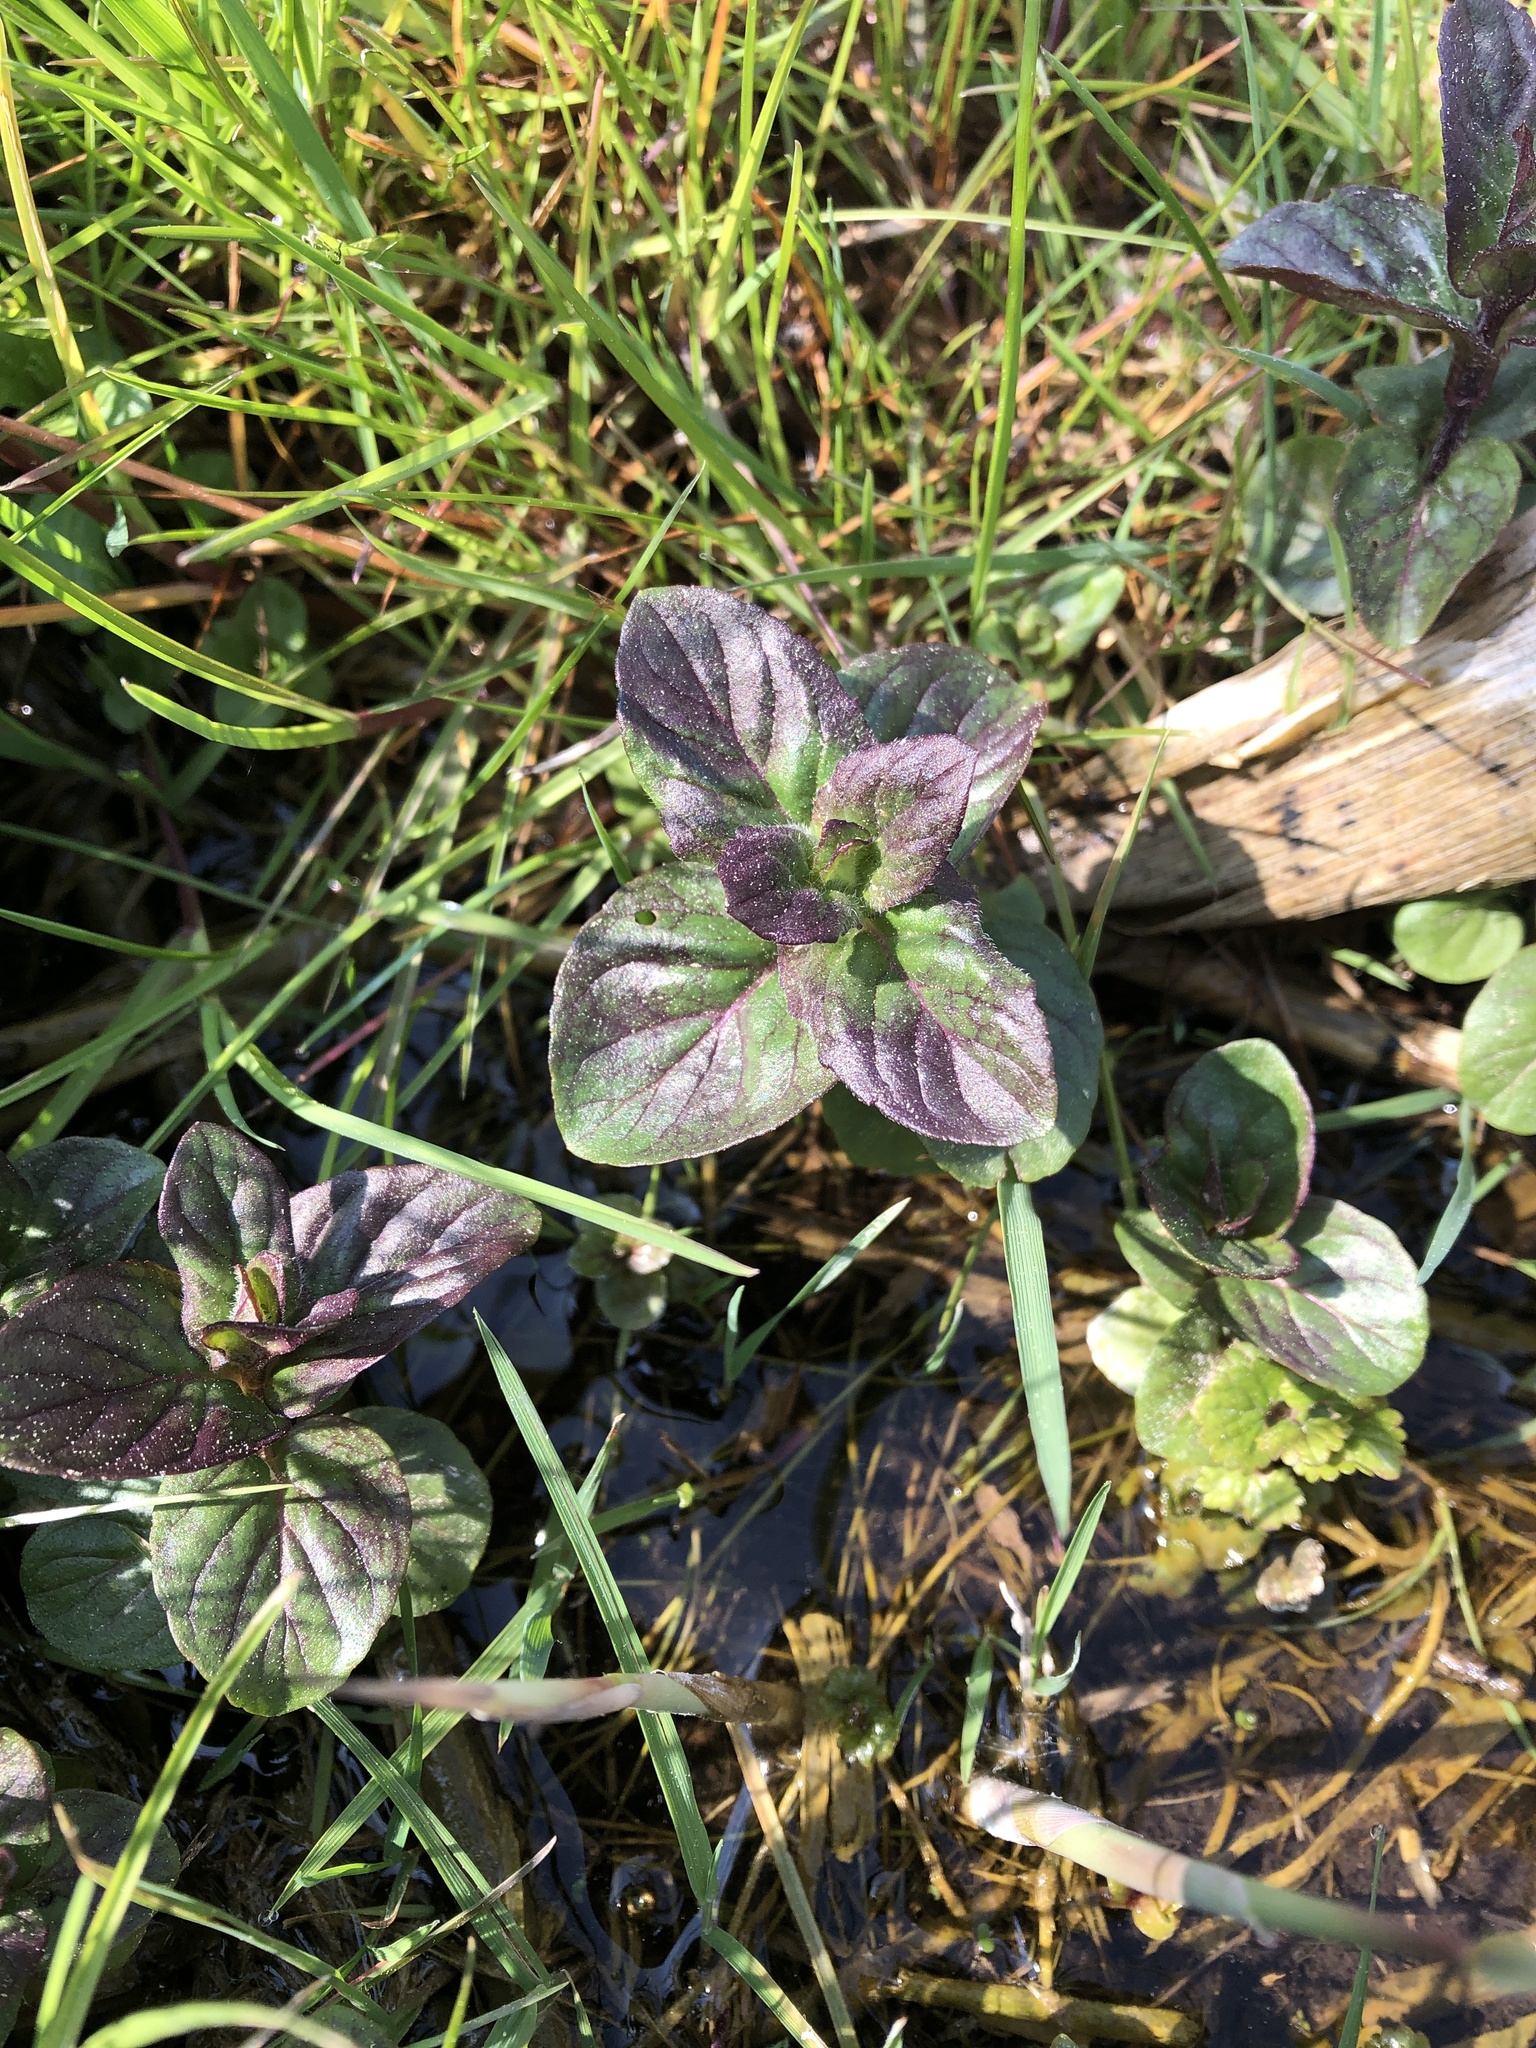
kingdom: Plantae
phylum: Tracheophyta
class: Magnoliopsida
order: Lamiales
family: Lamiaceae
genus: Mentha
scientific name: Mentha aquatica
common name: Water mint
